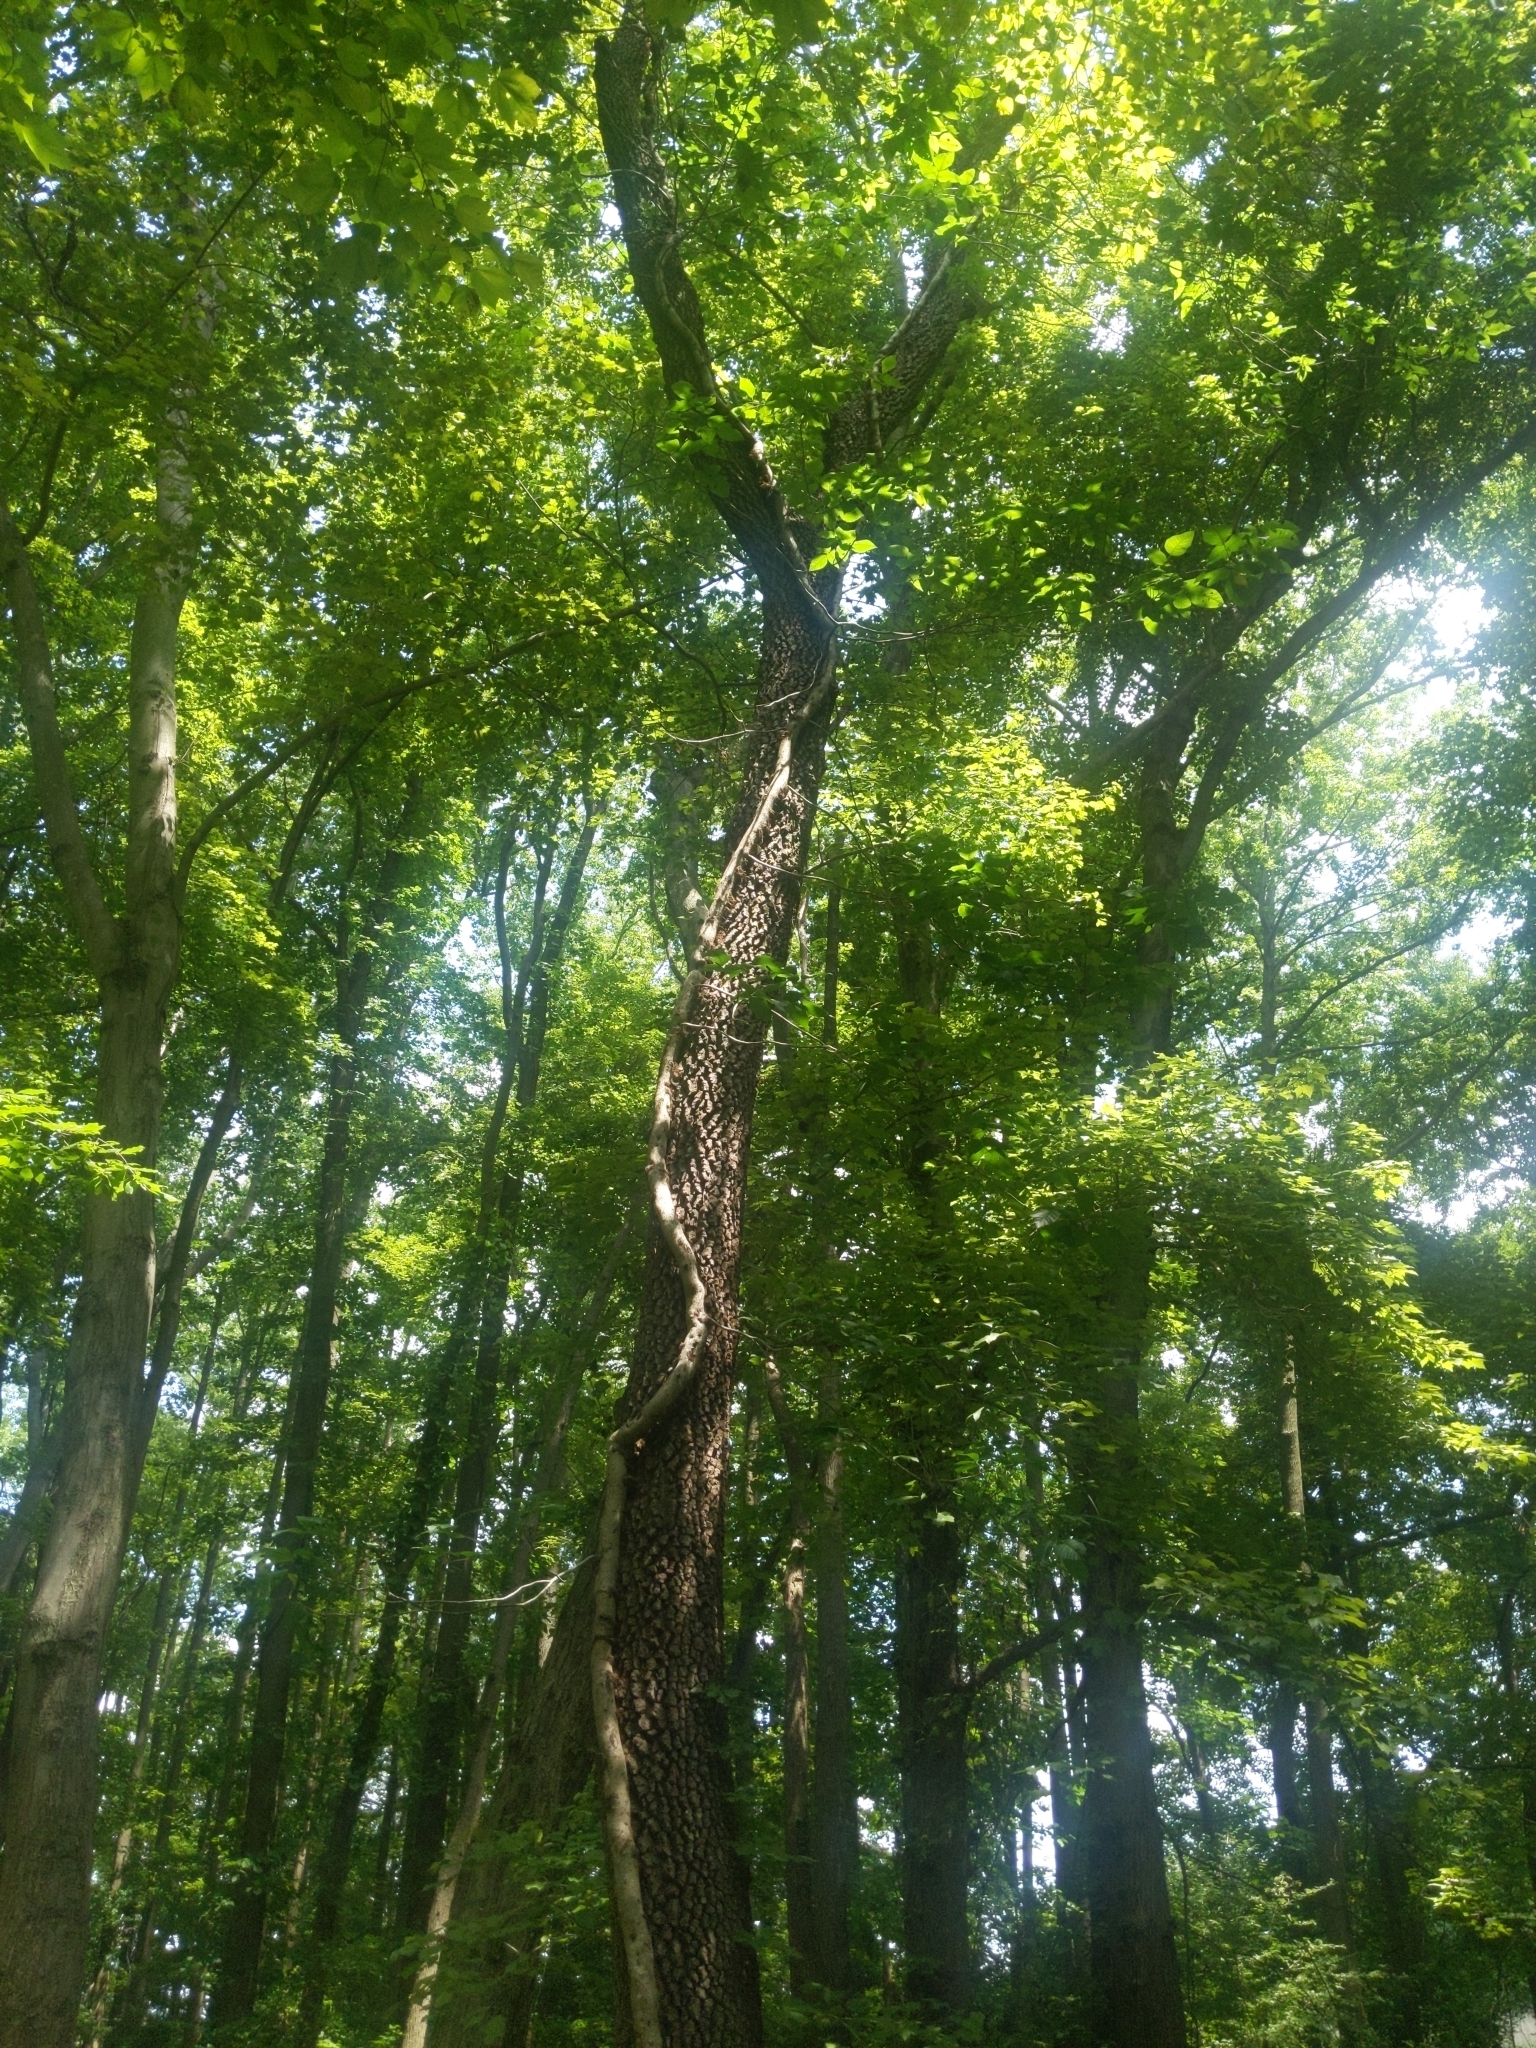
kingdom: Plantae
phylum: Tracheophyta
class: Magnoliopsida
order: Ericales
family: Ebenaceae
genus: Diospyros
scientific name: Diospyros virginiana
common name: Persimmon
